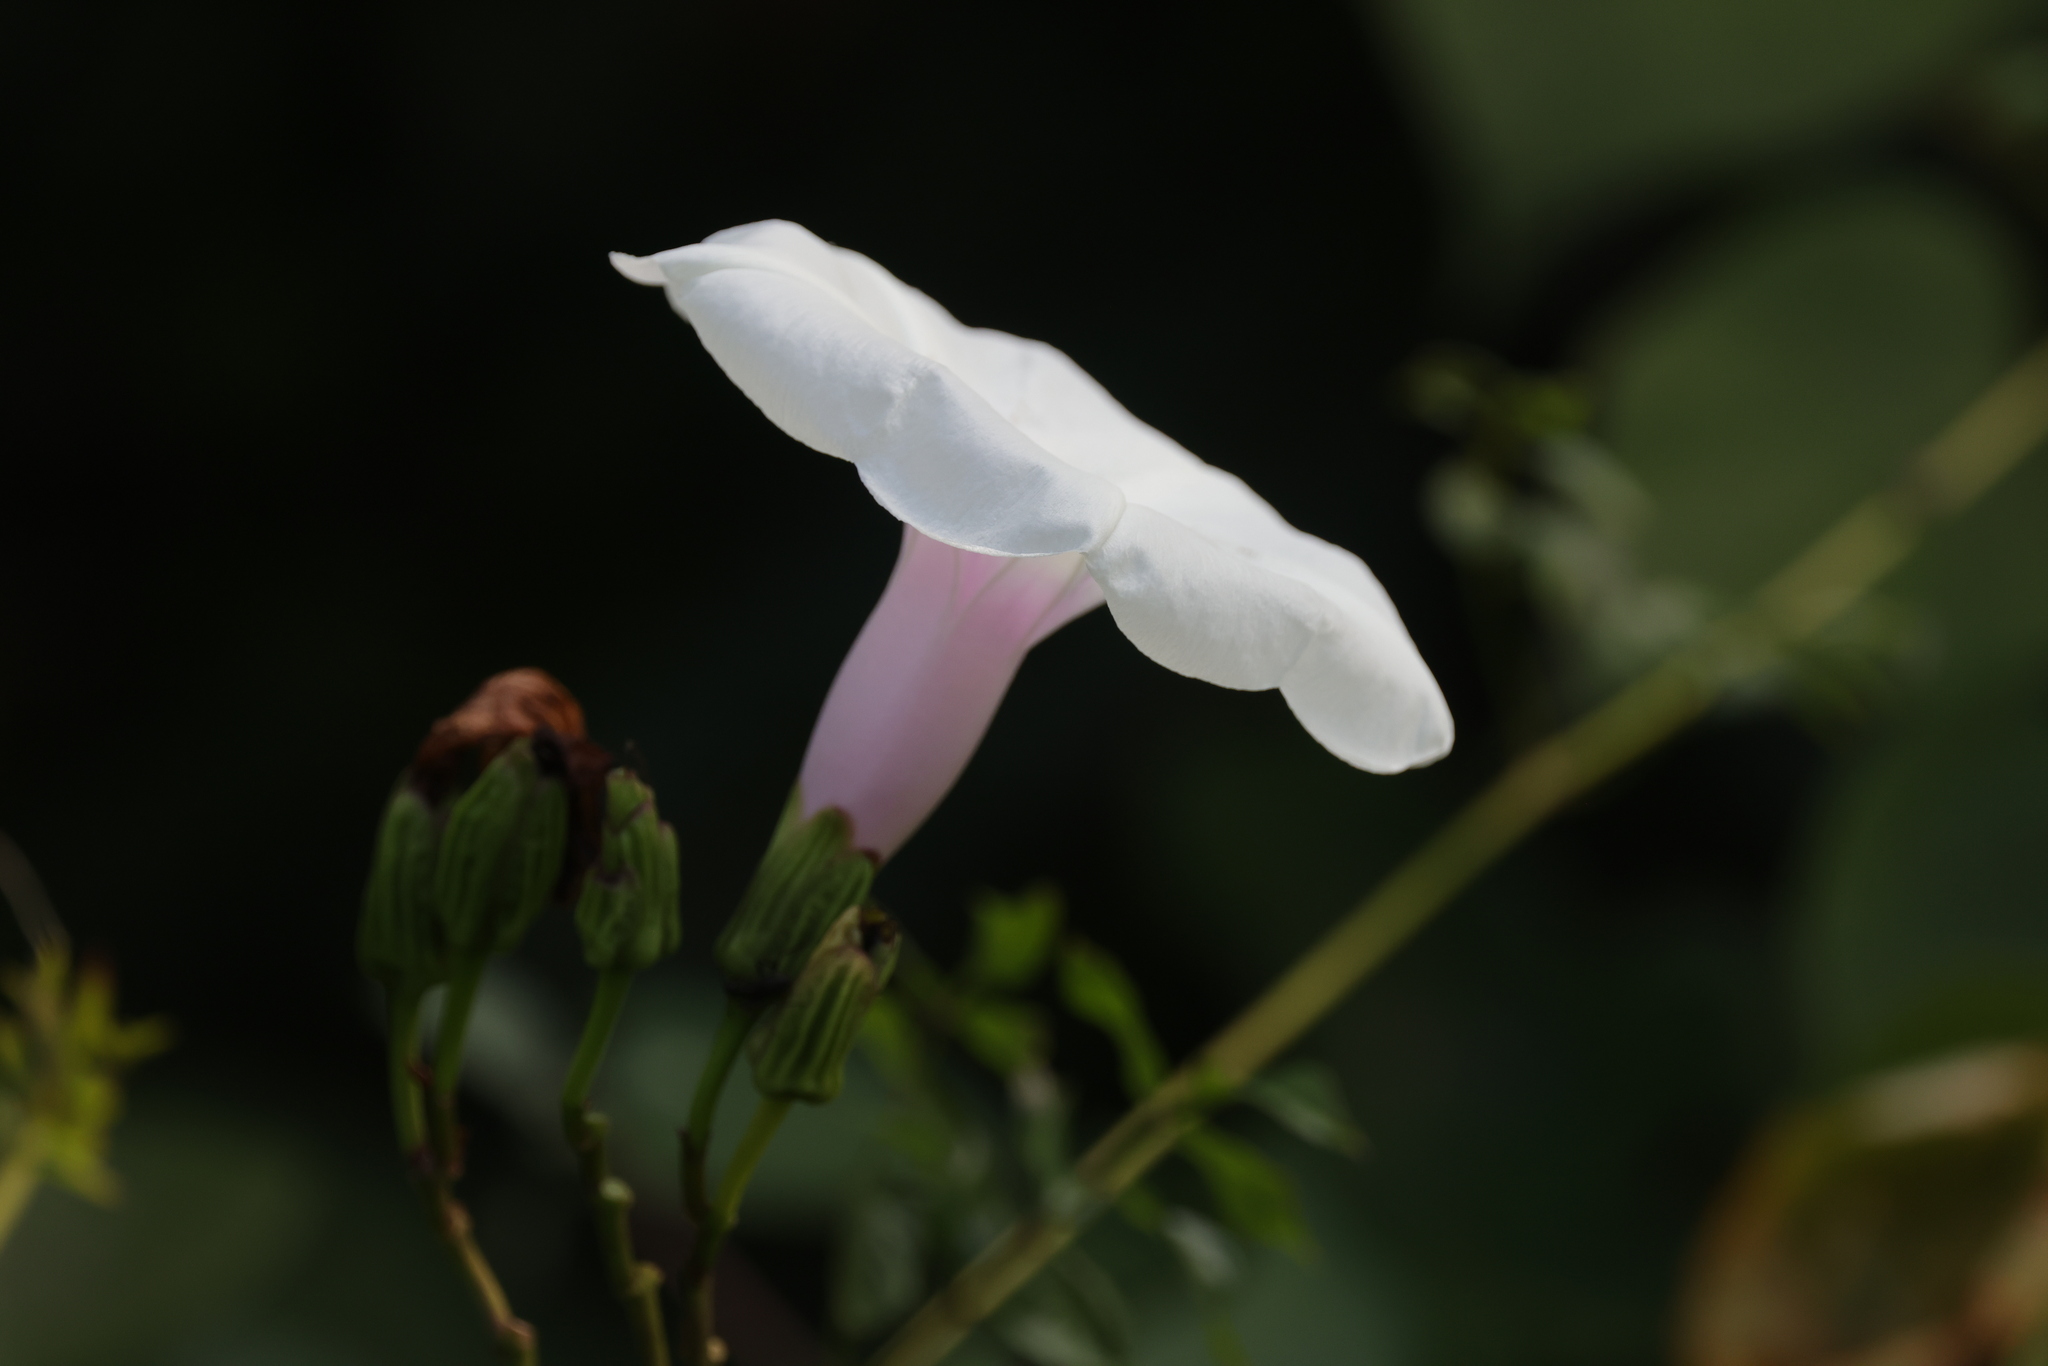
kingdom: Plantae
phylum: Tracheophyta
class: Magnoliopsida
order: Solanales
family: Convolvulaceae
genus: Ipomoea
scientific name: Ipomoea pandurata
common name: Man-of-the-earth
